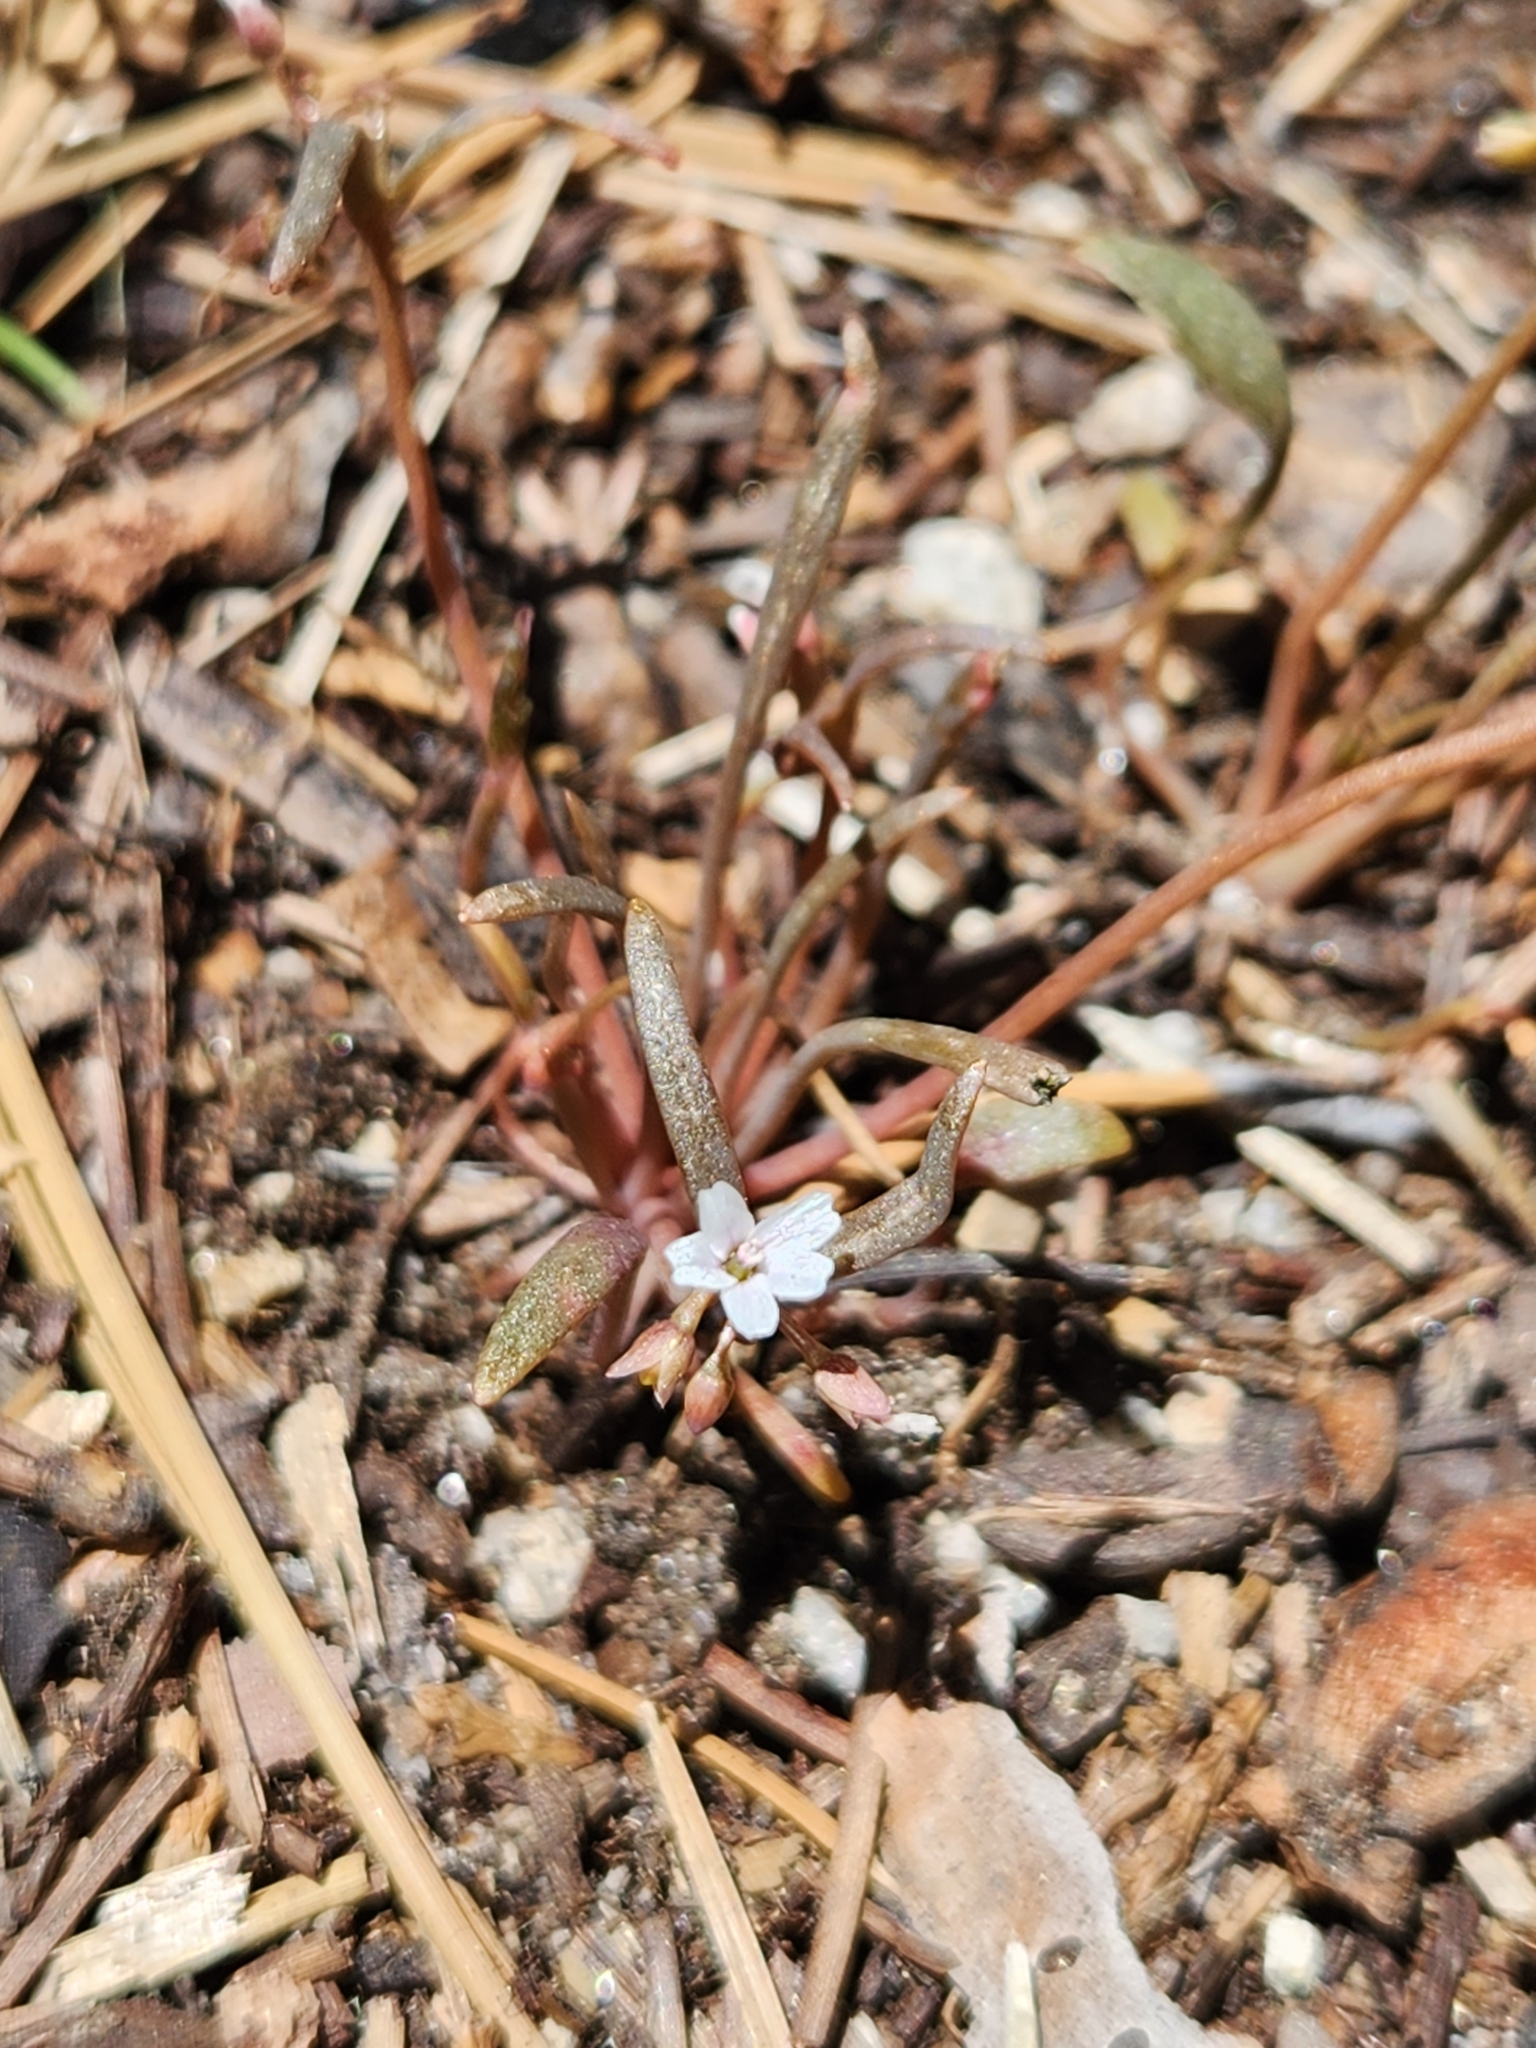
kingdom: Plantae
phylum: Tracheophyta
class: Magnoliopsida
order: Caryophyllales
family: Montiaceae
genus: Claytonia
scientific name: Claytonia parviflora
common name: Indian-lettuce
